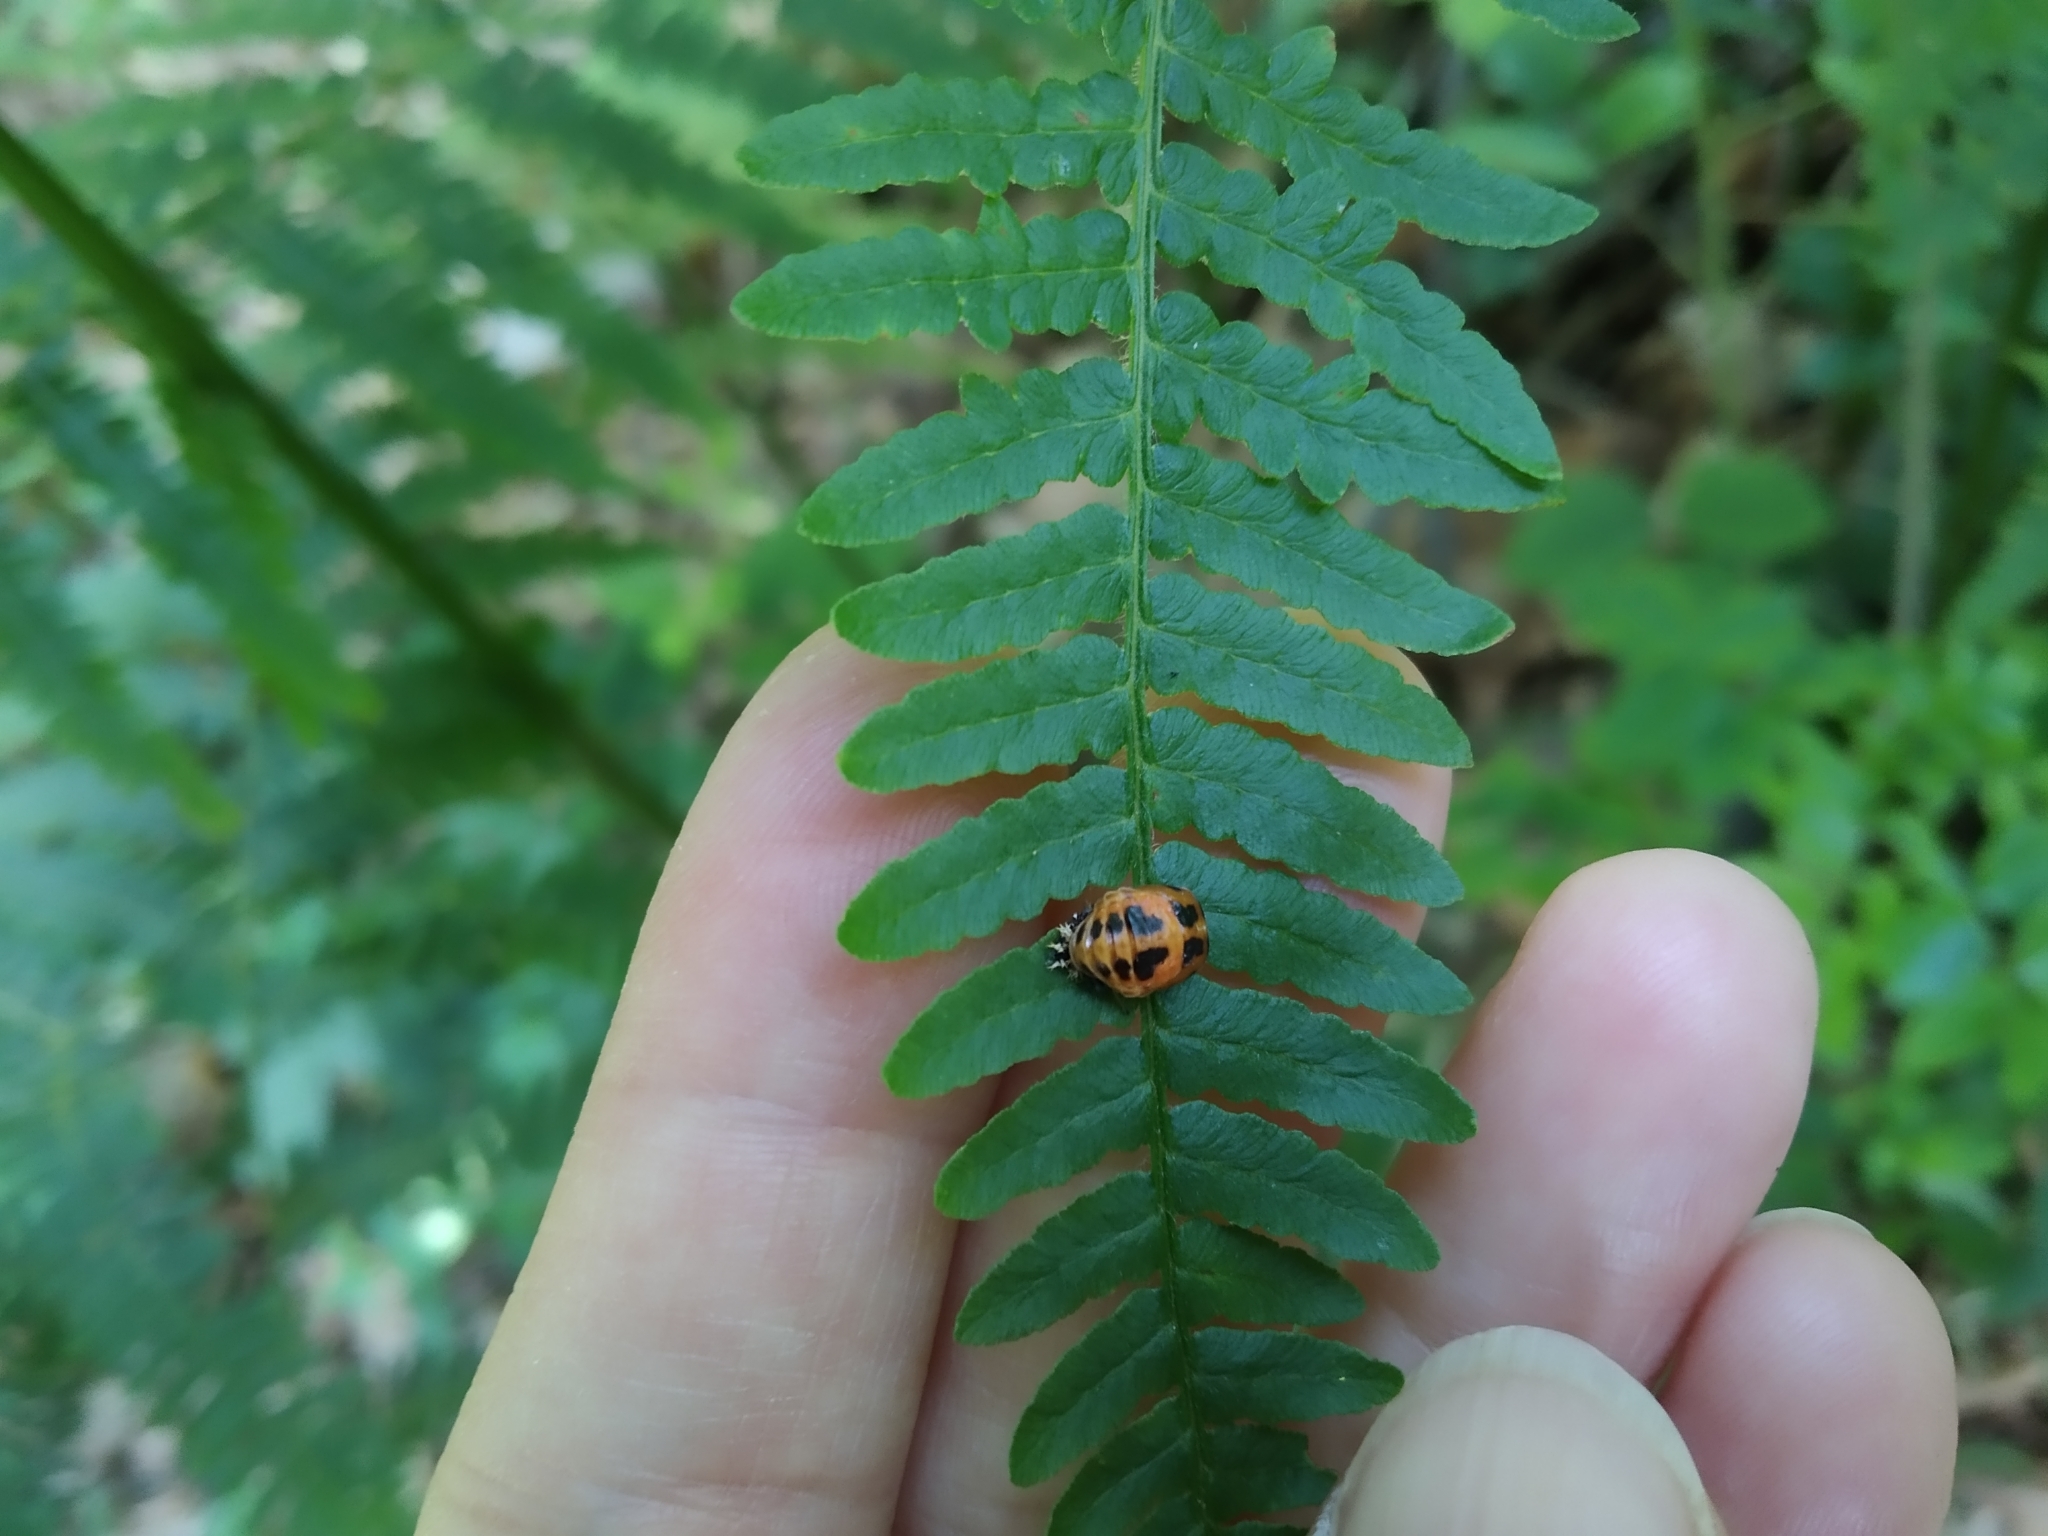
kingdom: Animalia
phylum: Arthropoda
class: Insecta
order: Coleoptera
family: Coccinellidae
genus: Harmonia
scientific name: Harmonia axyridis
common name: Harlequin ladybird
